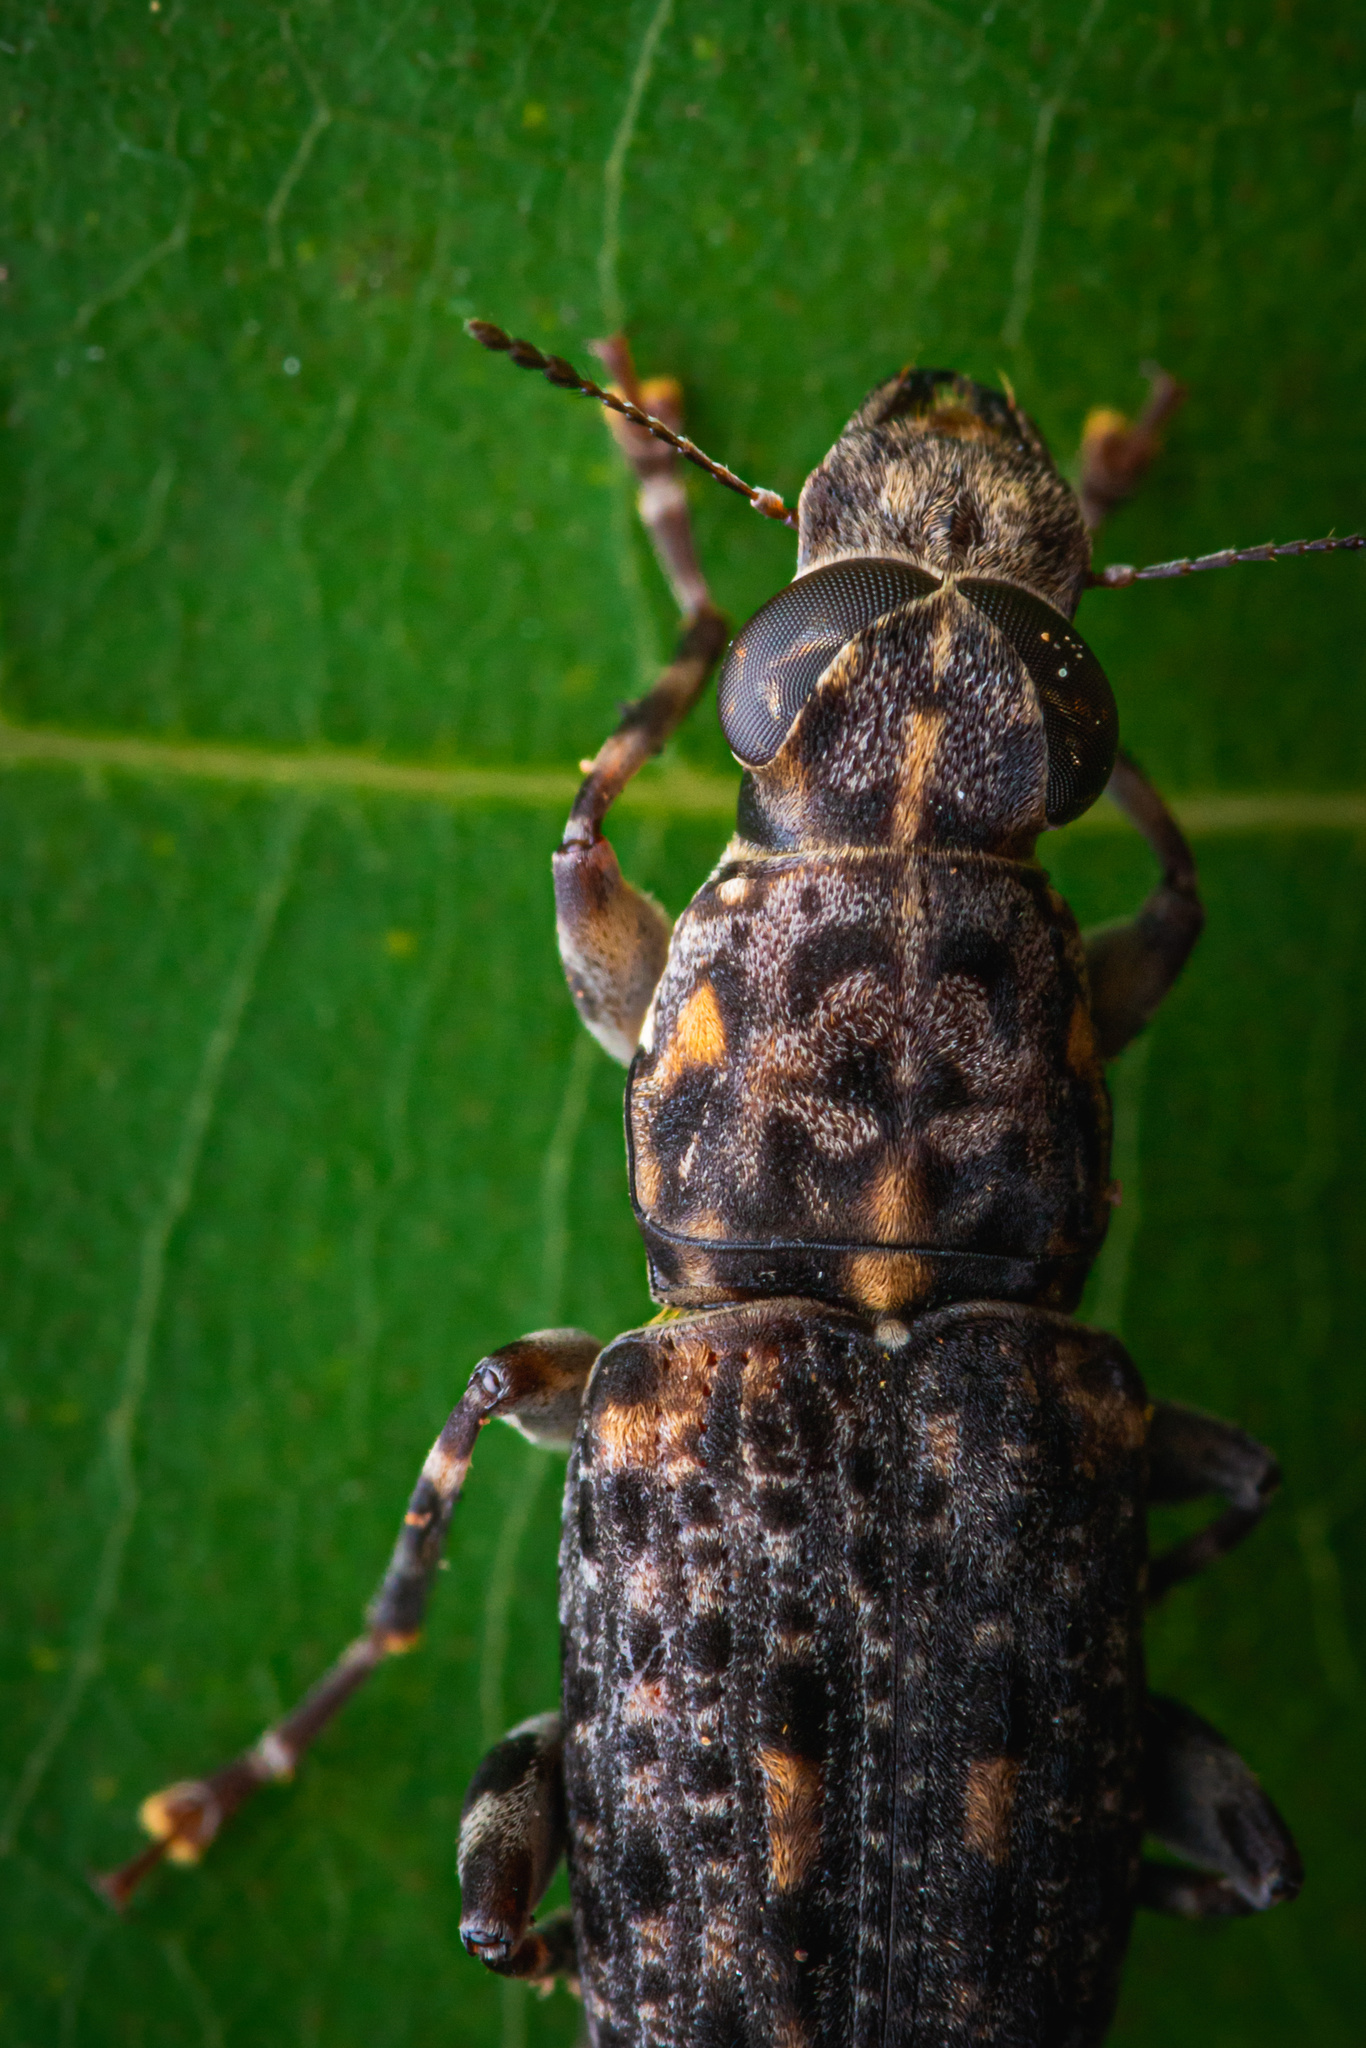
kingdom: Animalia
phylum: Arthropoda
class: Insecta
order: Coleoptera
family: Anthribidae
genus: Nessiara
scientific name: Nessiara variegata
